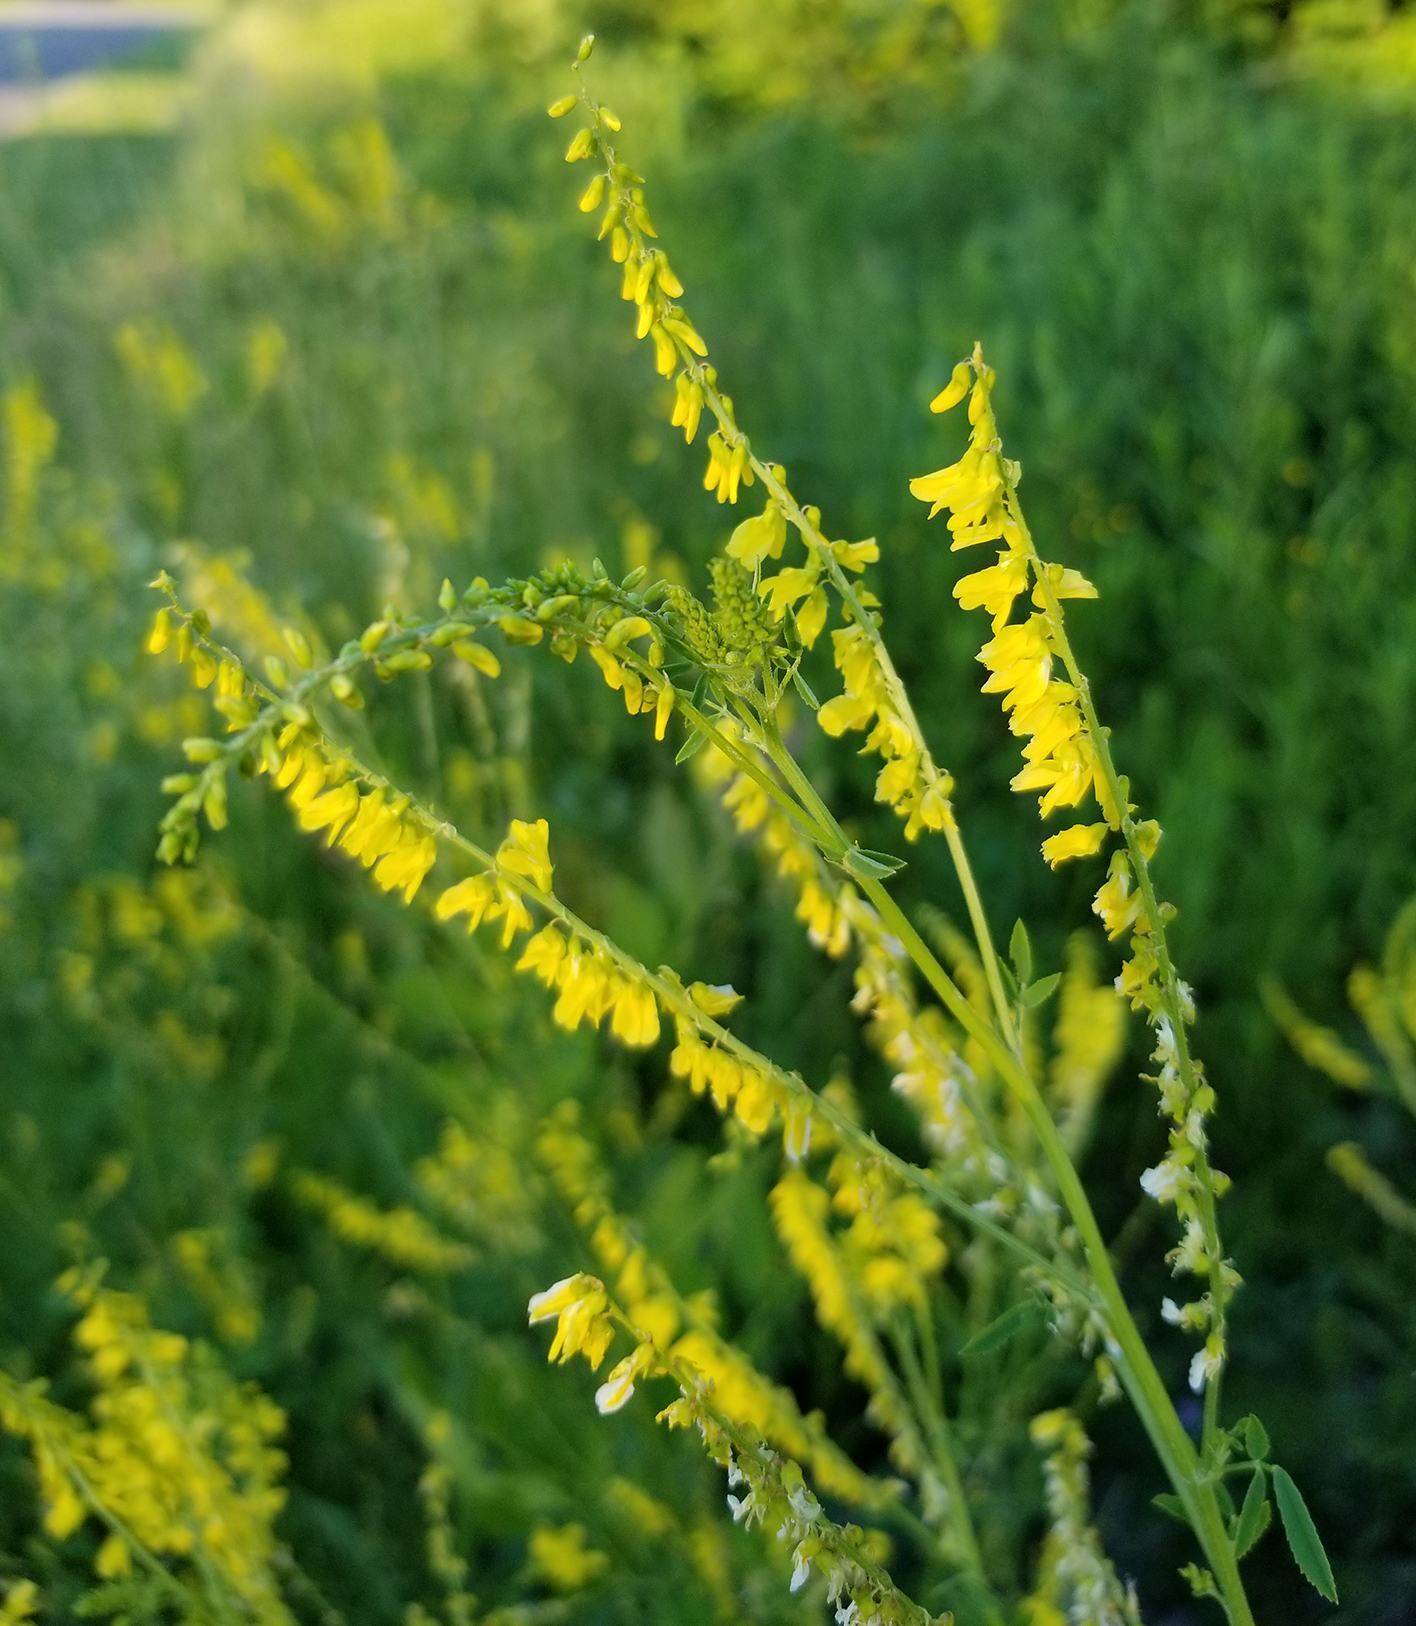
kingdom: Plantae
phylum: Tracheophyta
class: Magnoliopsida
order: Fabales
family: Fabaceae
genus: Melilotus
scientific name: Melilotus officinalis
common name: Sweetclover
